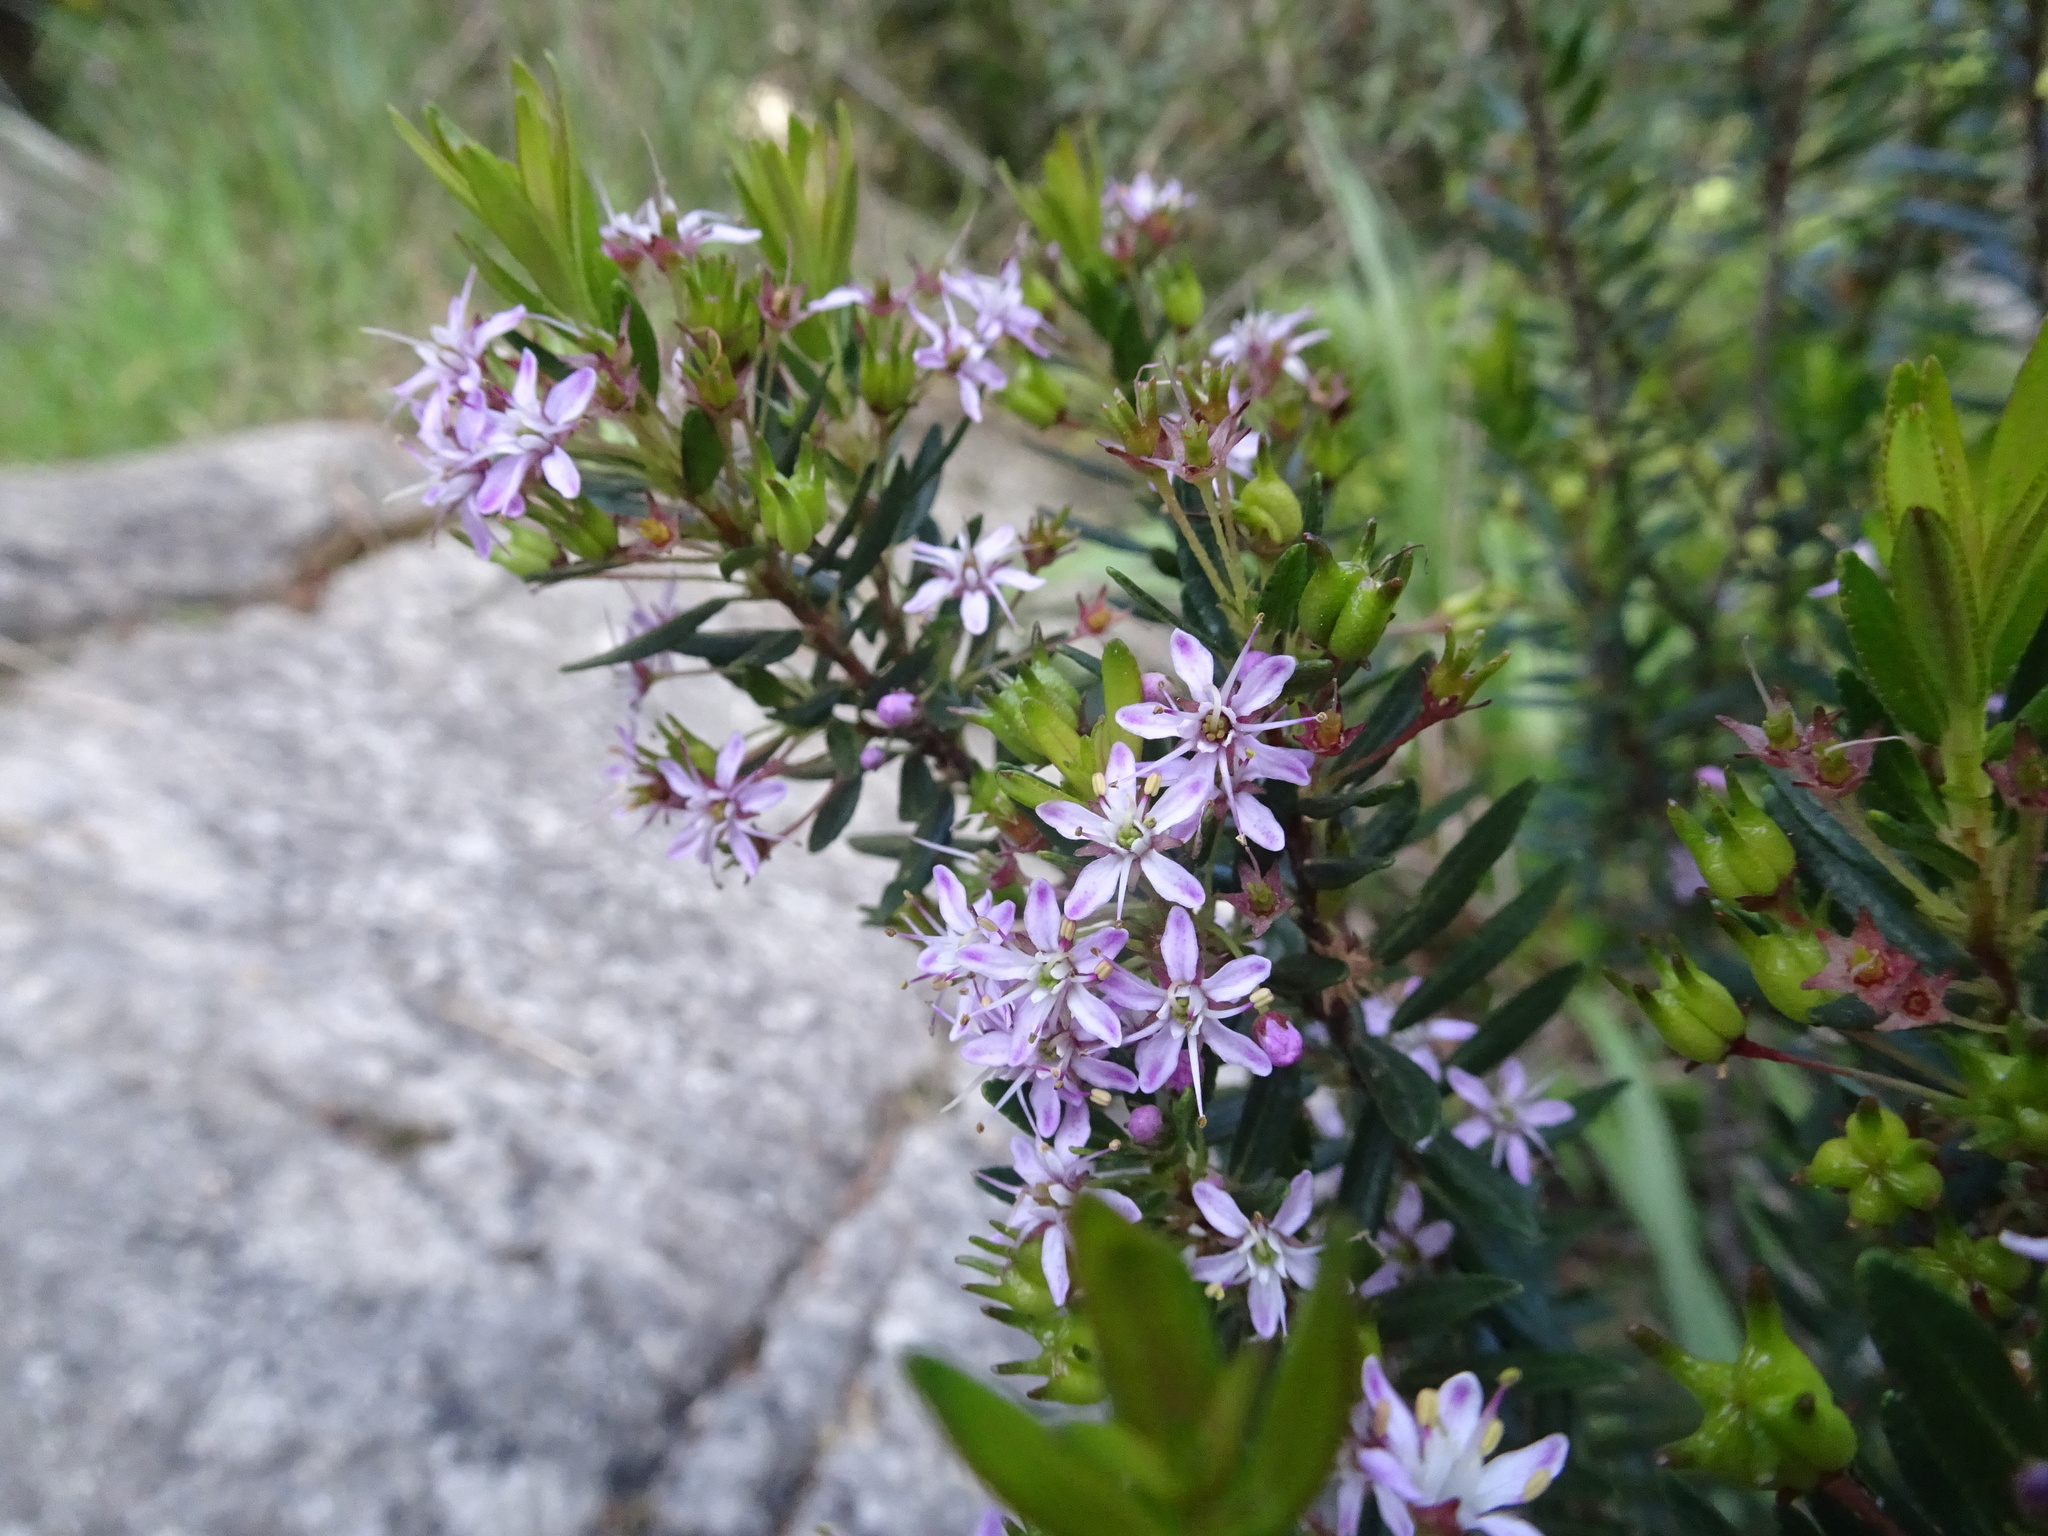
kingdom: Plantae
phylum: Tracheophyta
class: Magnoliopsida
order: Sapindales
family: Rutaceae
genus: Agathosma
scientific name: Agathosma ovata
